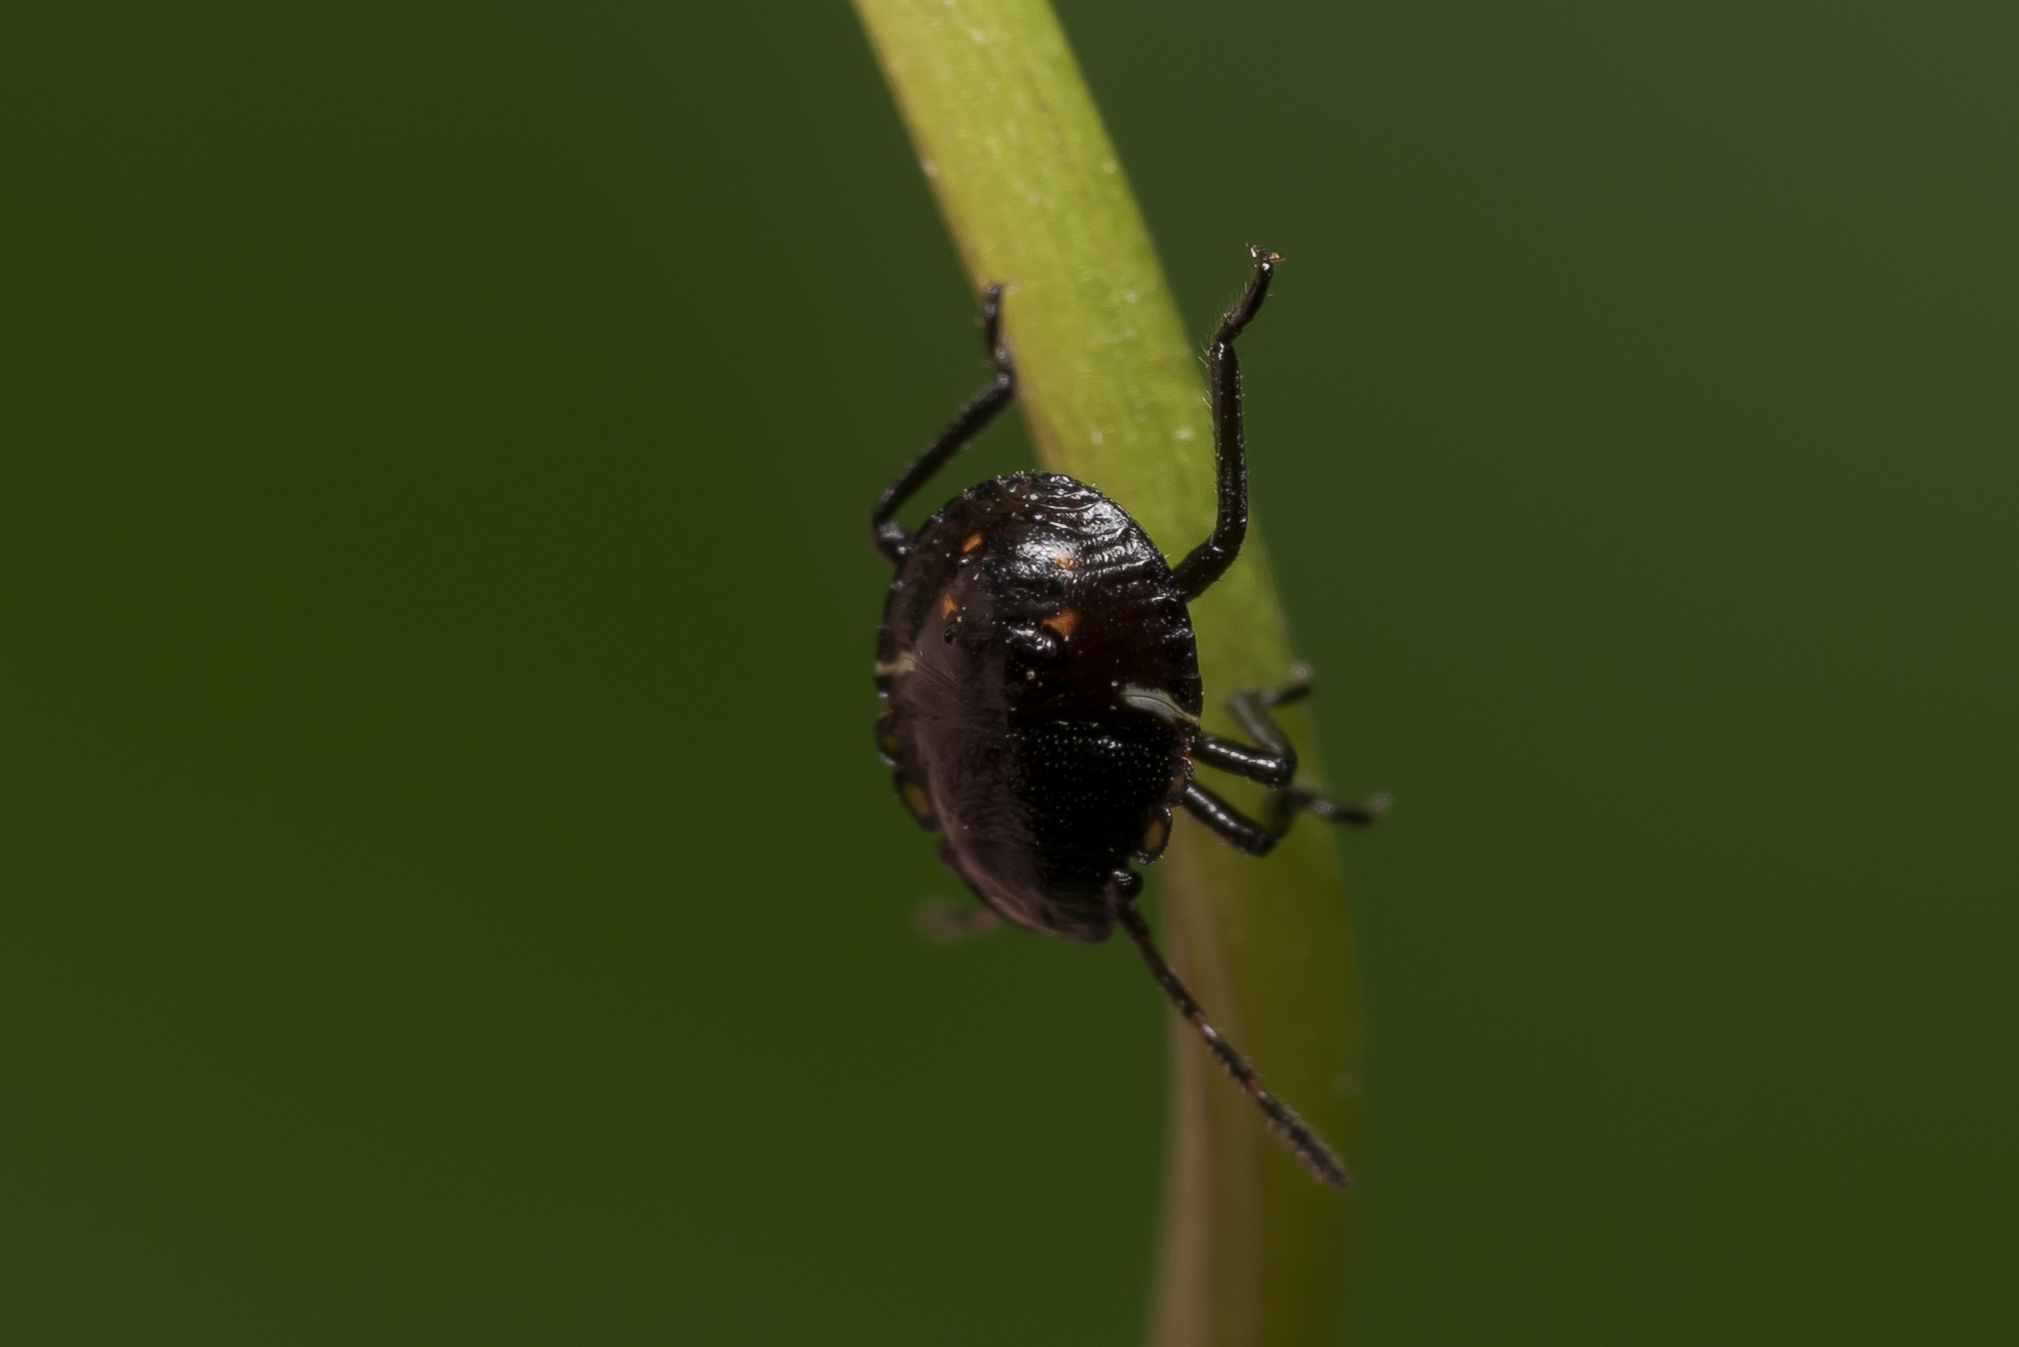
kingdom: Animalia
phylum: Arthropoda
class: Insecta
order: Hemiptera
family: Pentatomidae
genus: Nezara
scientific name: Nezara viridula
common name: Southern green stink bug
